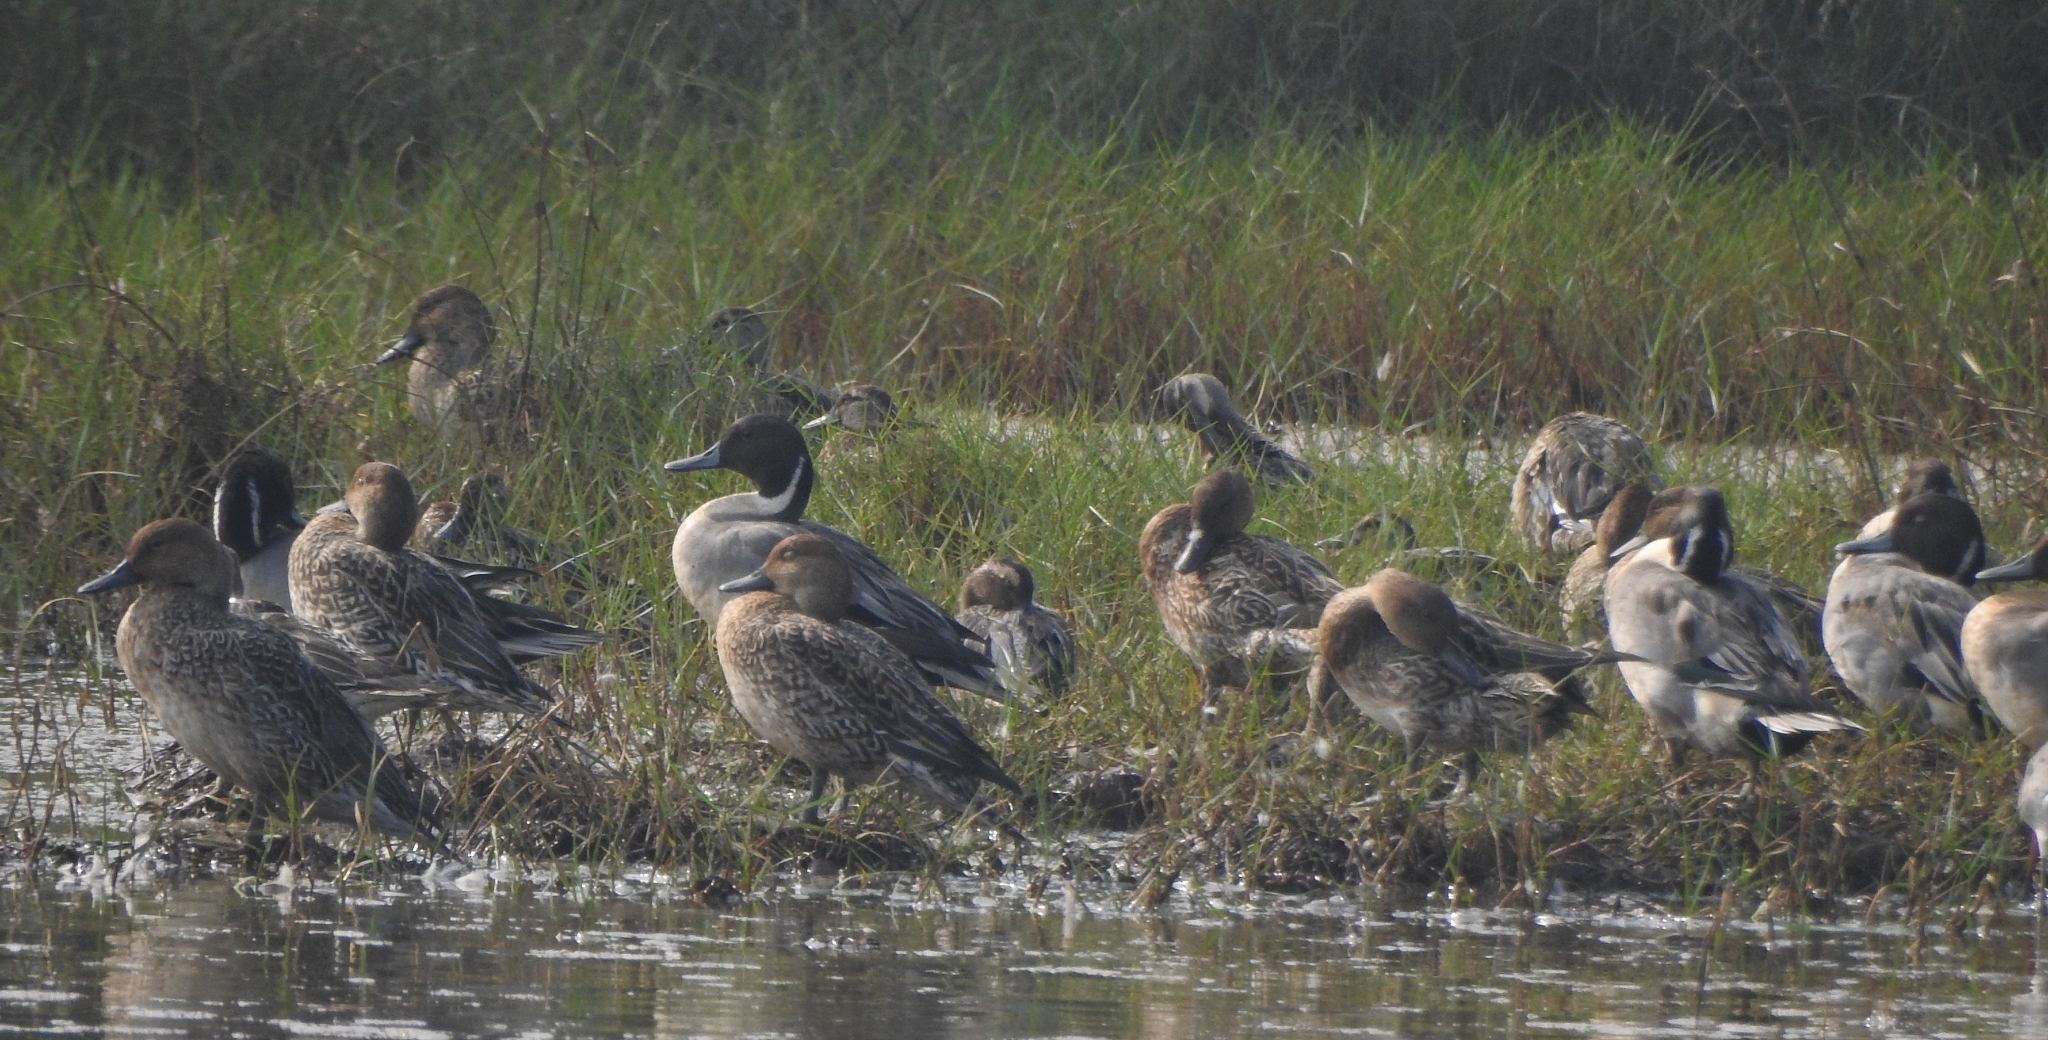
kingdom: Animalia
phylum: Chordata
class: Aves
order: Anseriformes
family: Anatidae
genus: Anas
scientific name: Anas acuta
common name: Northern pintail
